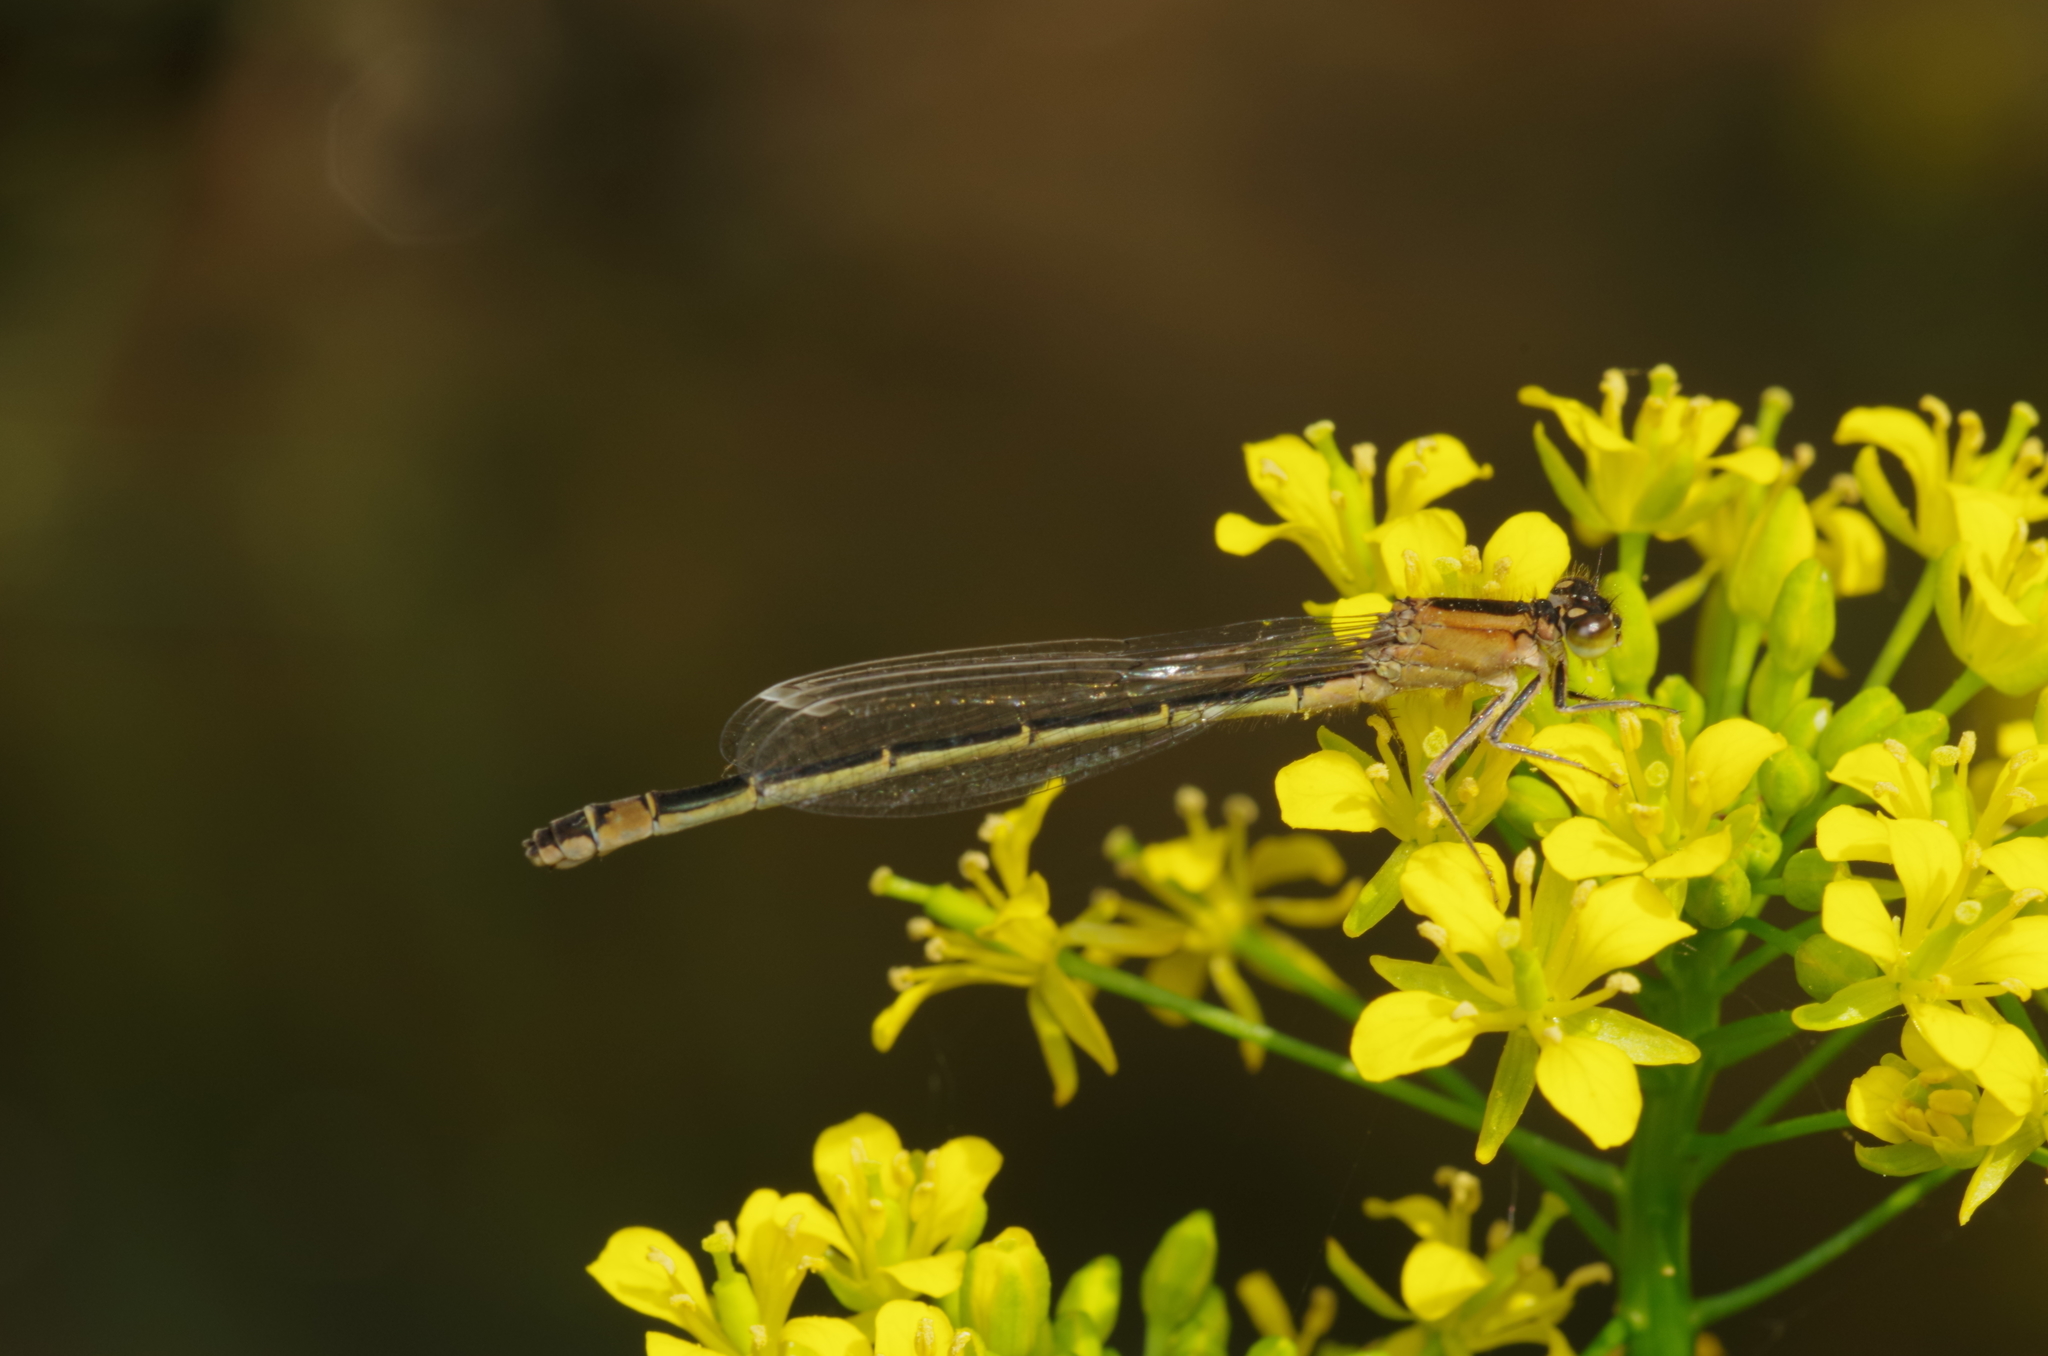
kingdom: Animalia
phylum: Arthropoda
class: Insecta
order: Odonata
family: Coenagrionidae
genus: Ischnura
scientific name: Ischnura elegans
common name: Blue-tailed damselfly
